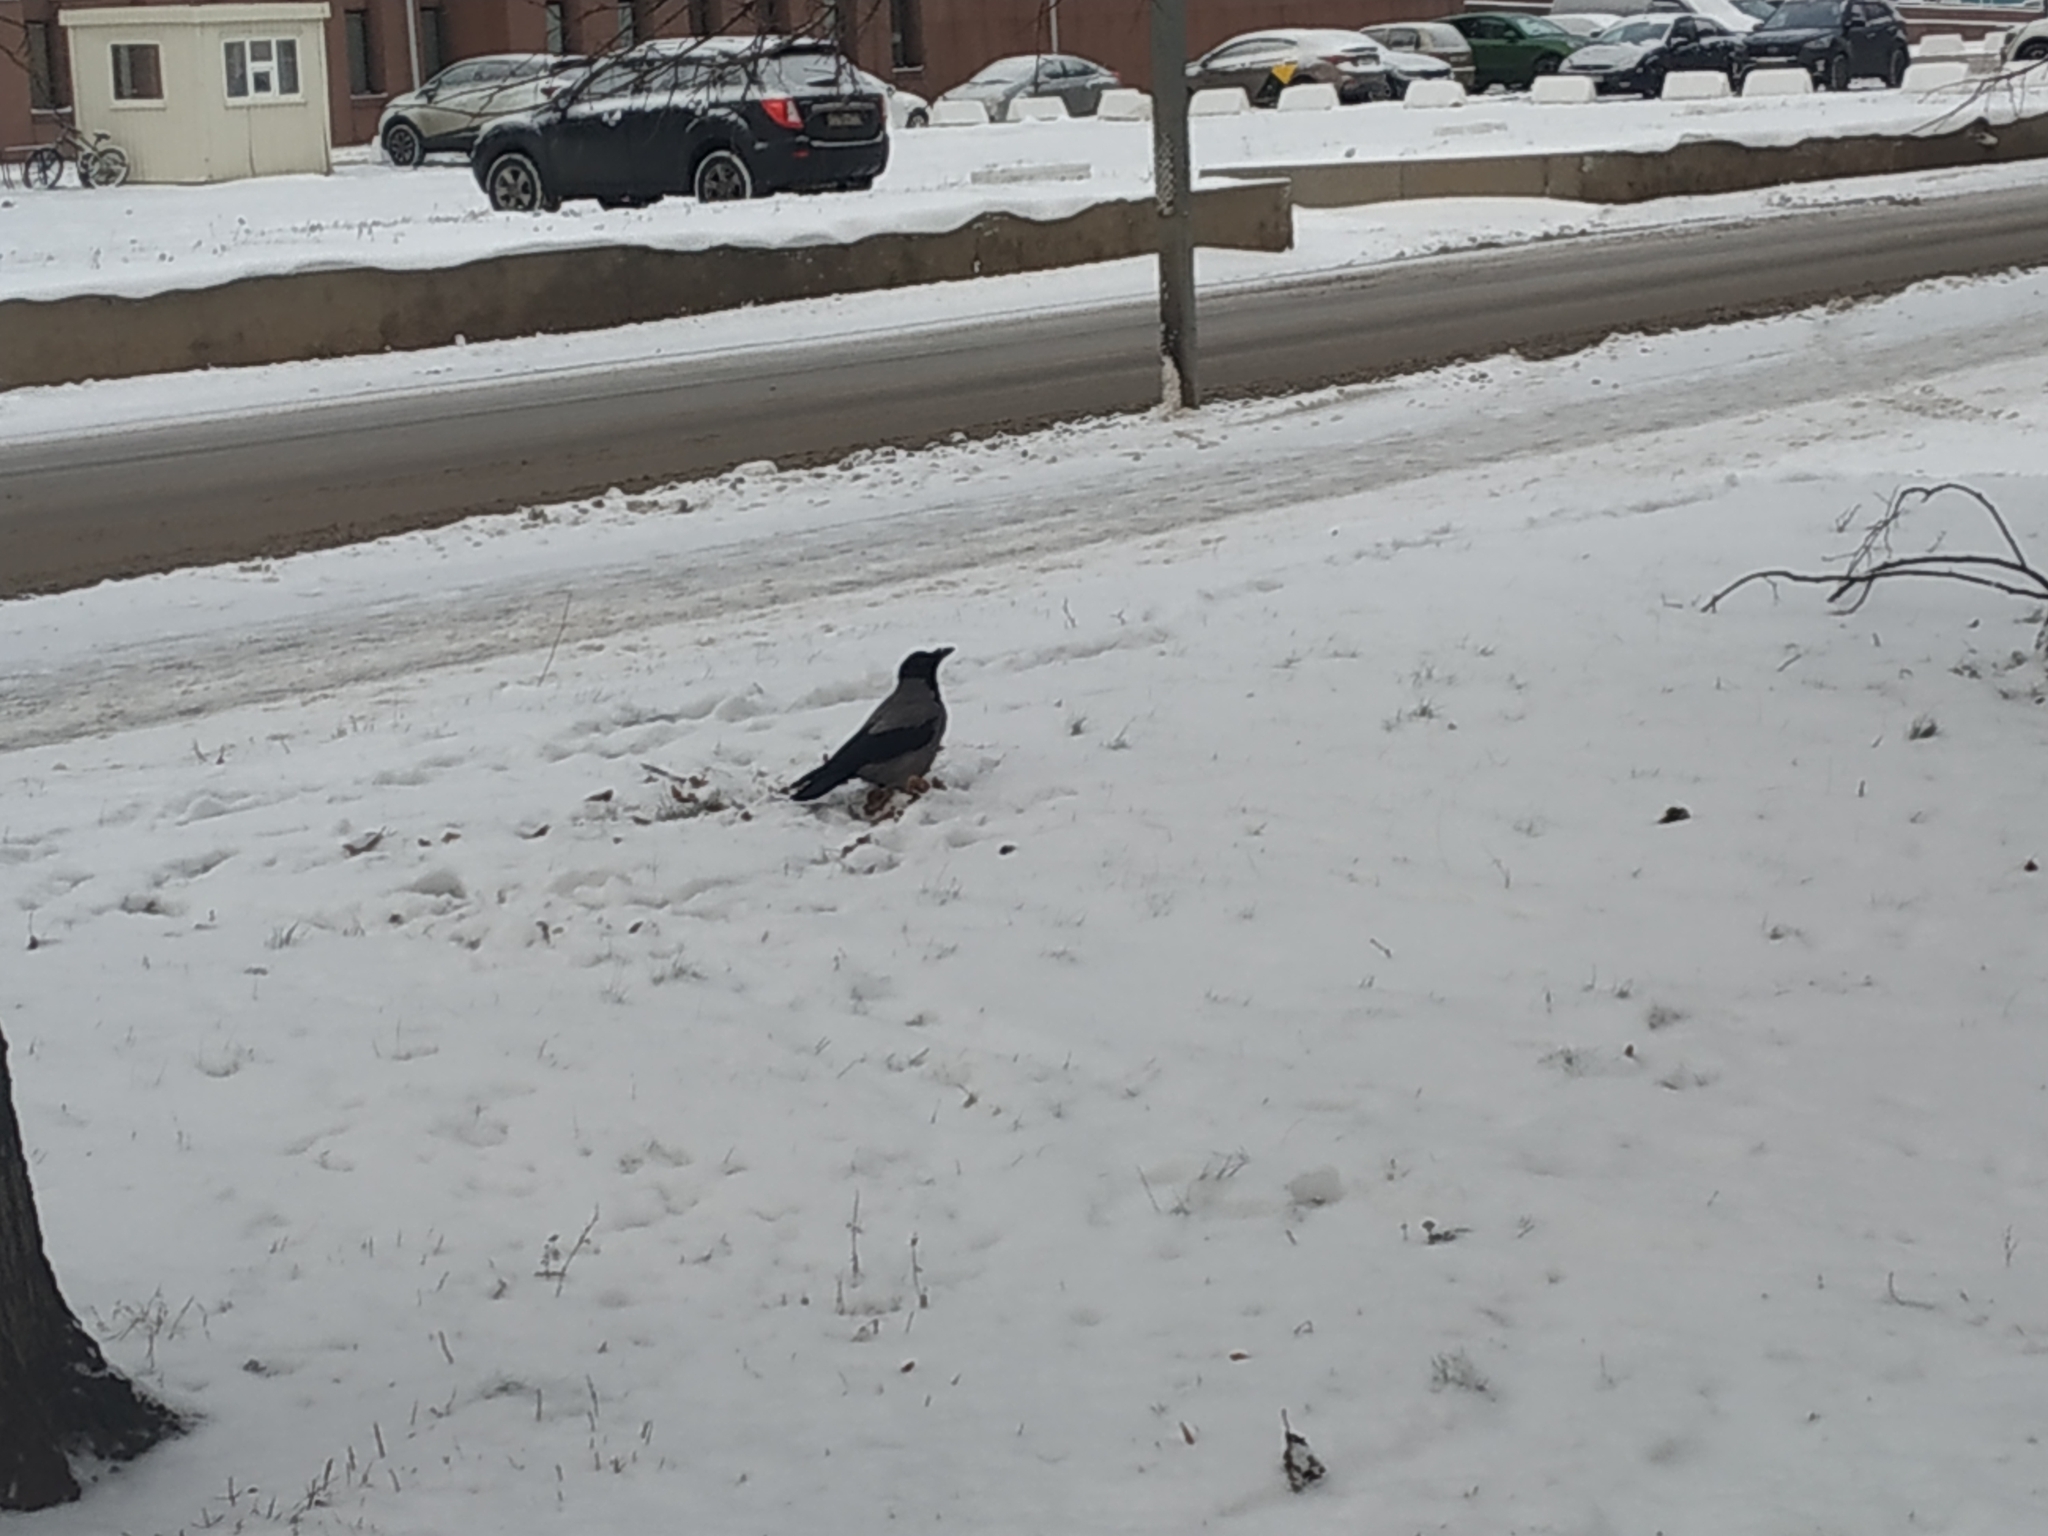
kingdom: Animalia
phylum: Chordata
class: Aves
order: Passeriformes
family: Corvidae
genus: Corvus
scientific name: Corvus cornix
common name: Hooded crow
